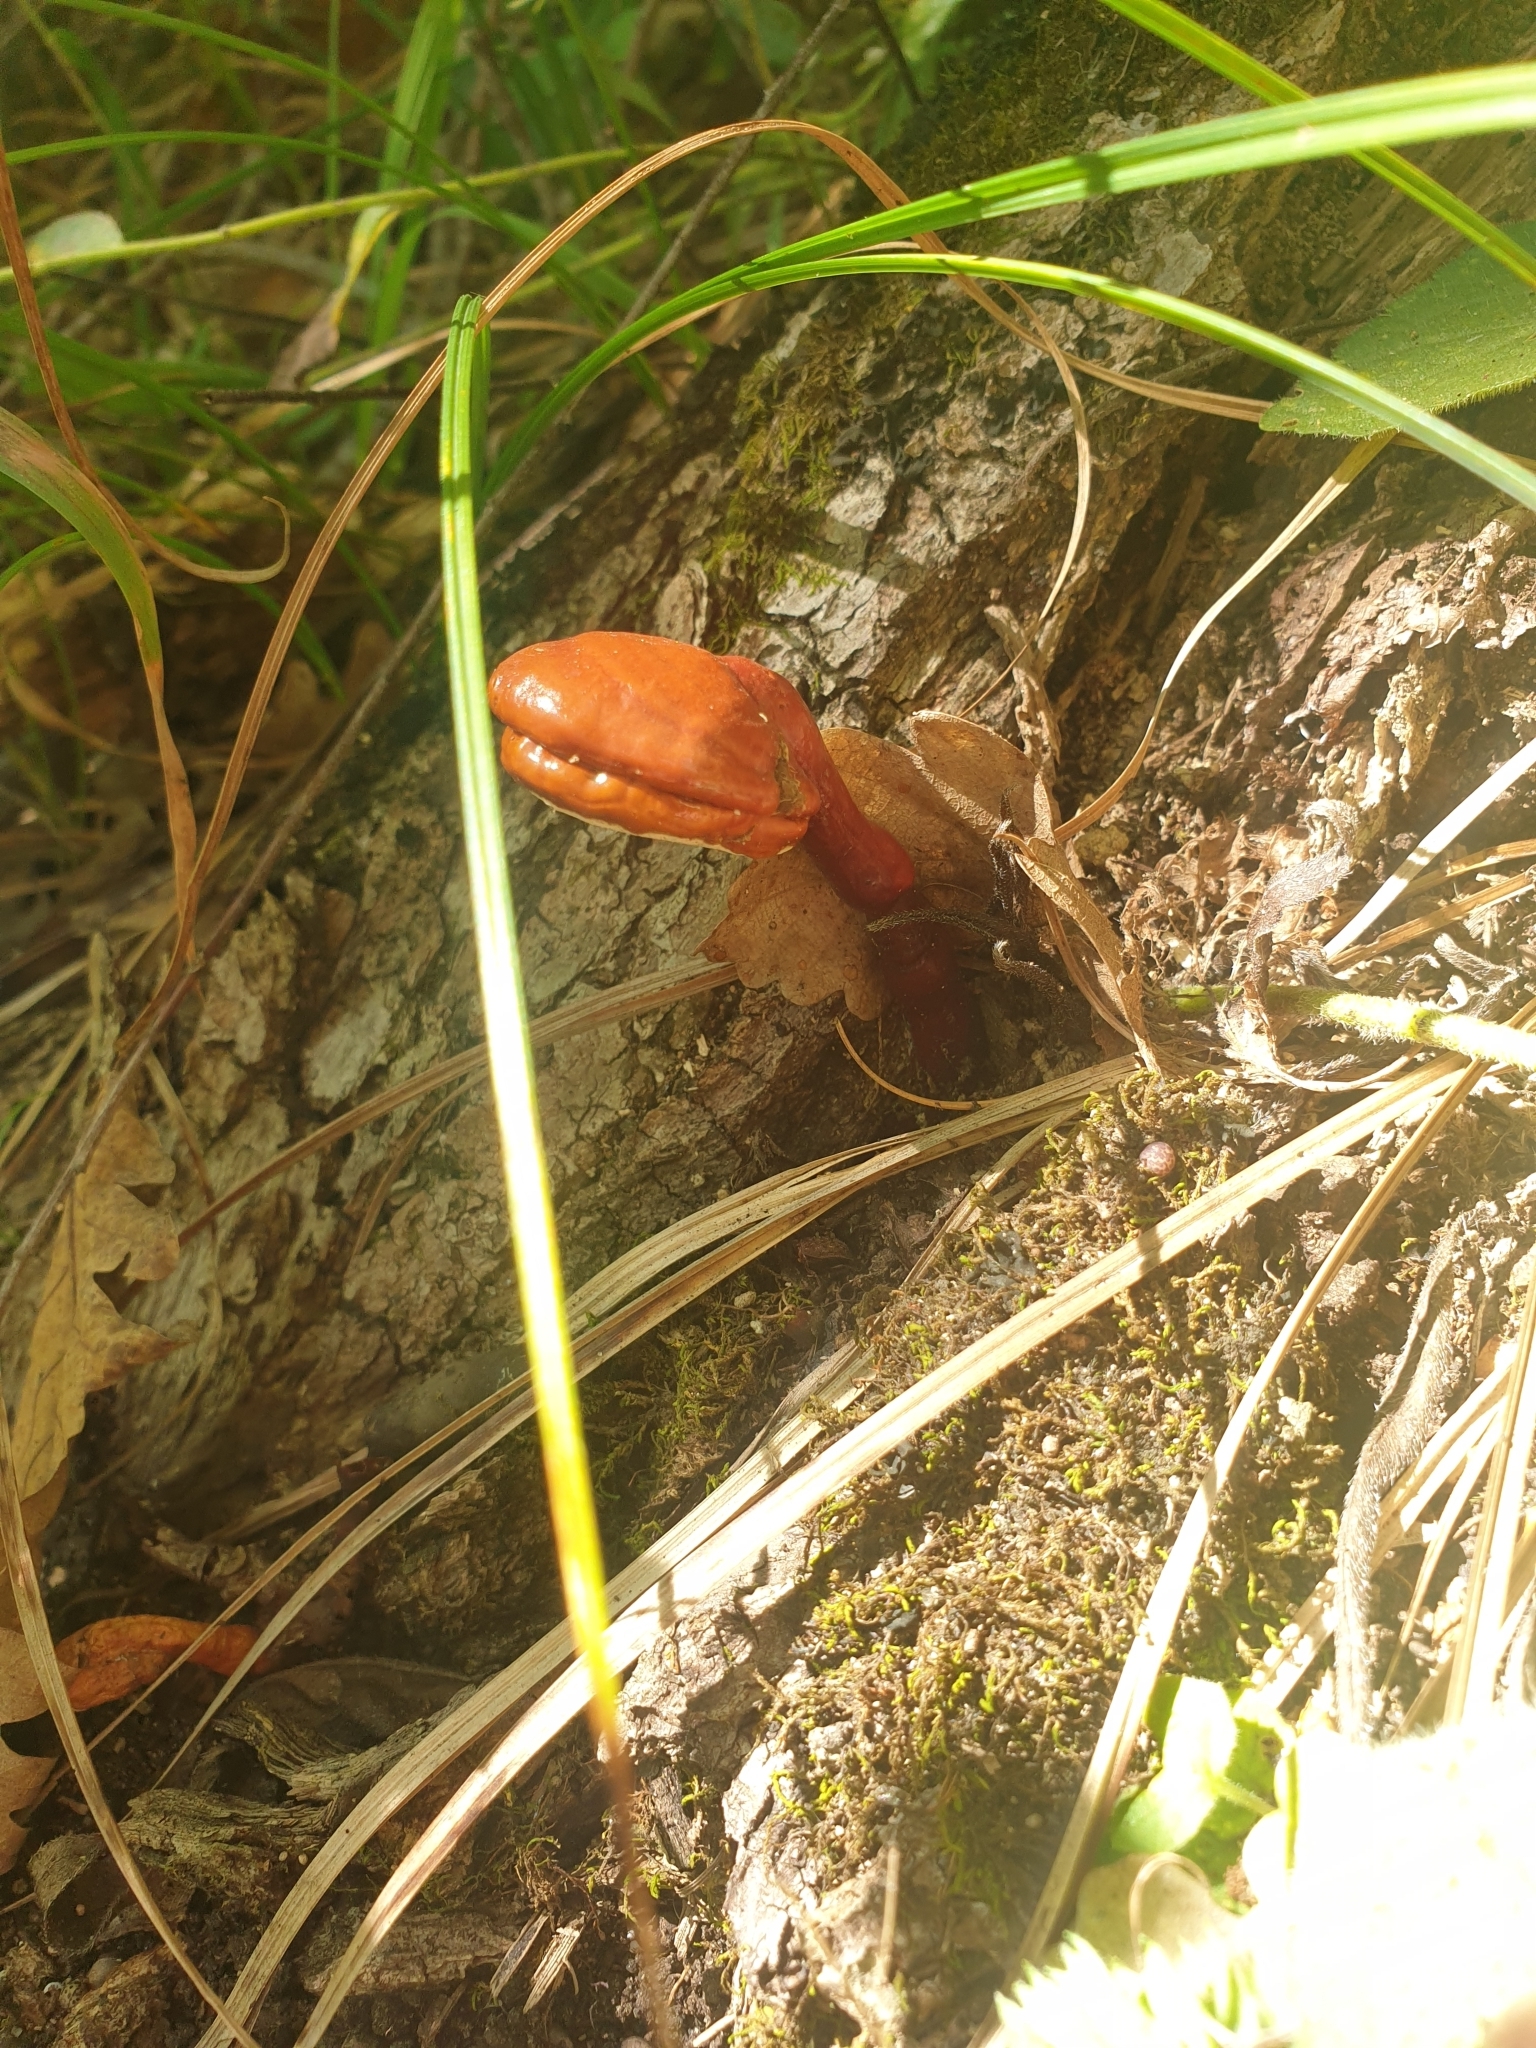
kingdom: Fungi
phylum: Basidiomycota
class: Agaricomycetes
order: Polyporales
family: Polyporaceae
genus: Ganoderma
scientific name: Ganoderma lucidum
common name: Lacquered bracket
